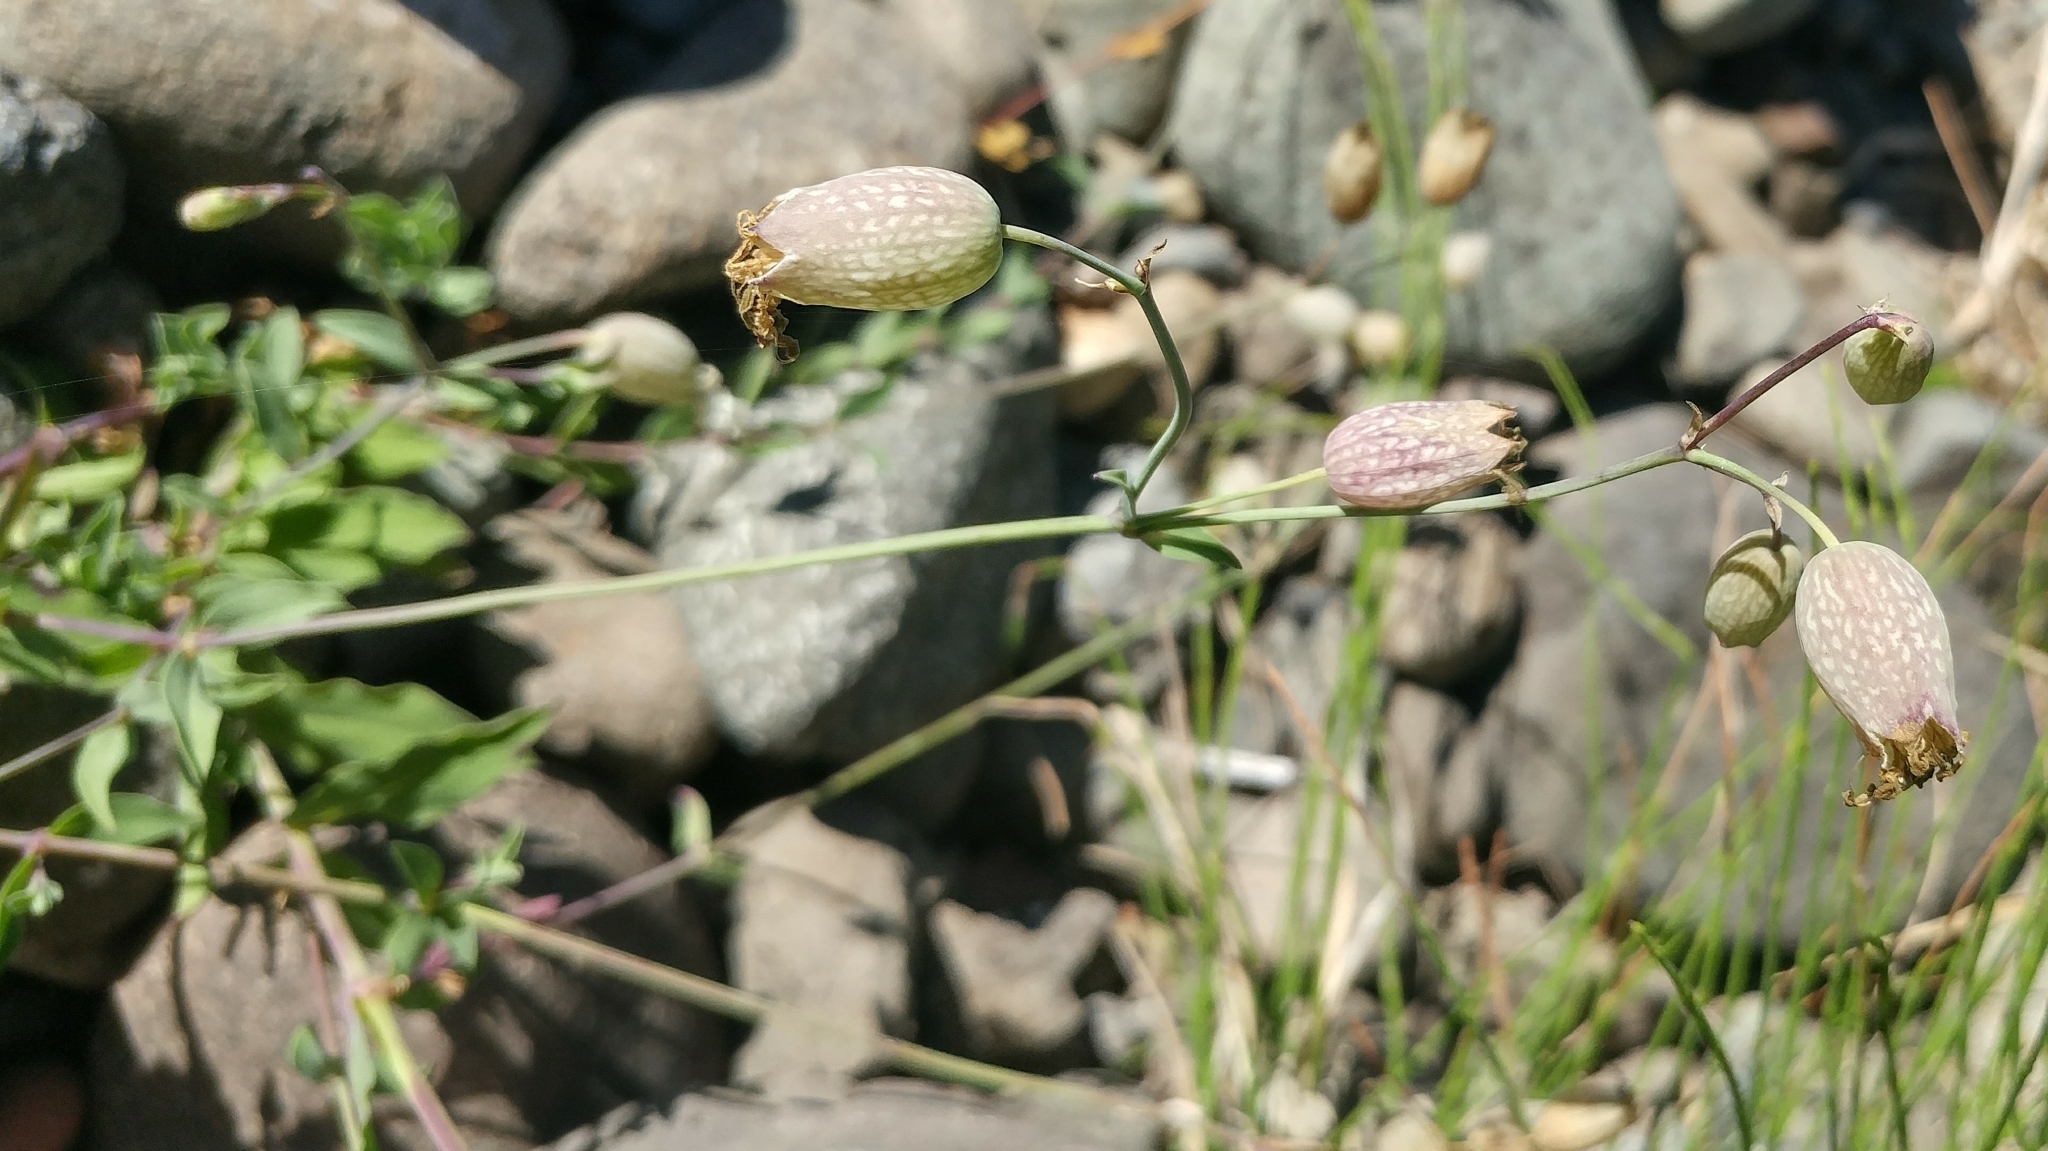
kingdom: Plantae
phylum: Tracheophyta
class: Magnoliopsida
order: Caryophyllales
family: Caryophyllaceae
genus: Silene
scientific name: Silene vulgaris
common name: Bladder campion
